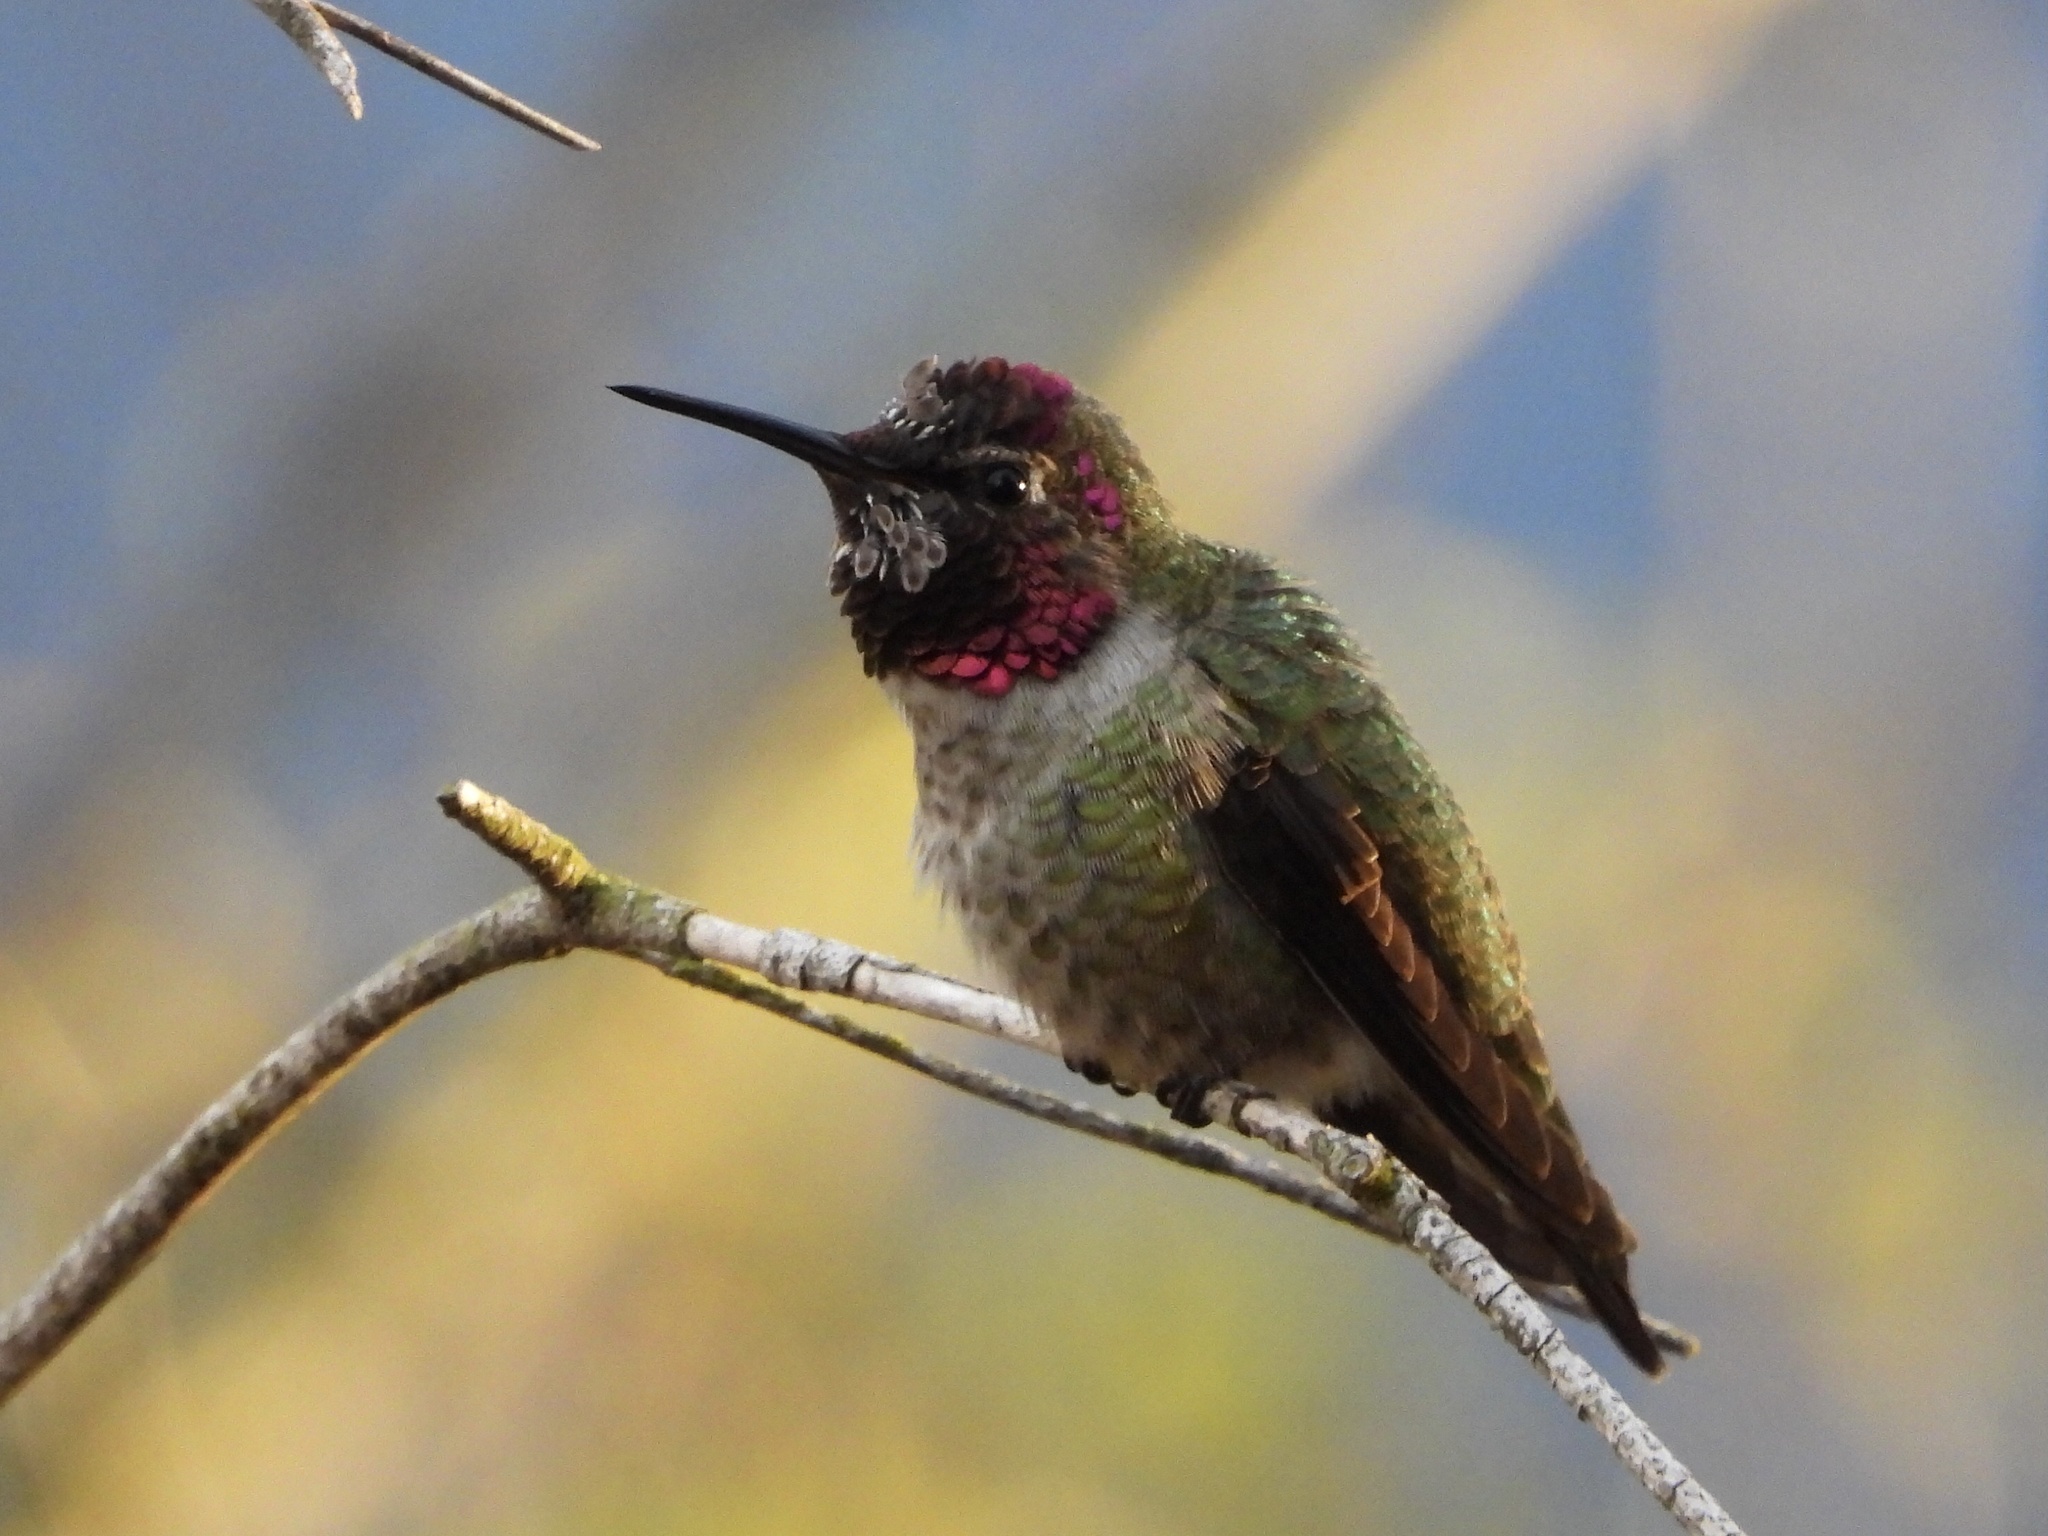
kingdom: Animalia
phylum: Chordata
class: Aves
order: Apodiformes
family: Trochilidae
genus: Calypte
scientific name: Calypte anna
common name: Anna's hummingbird
